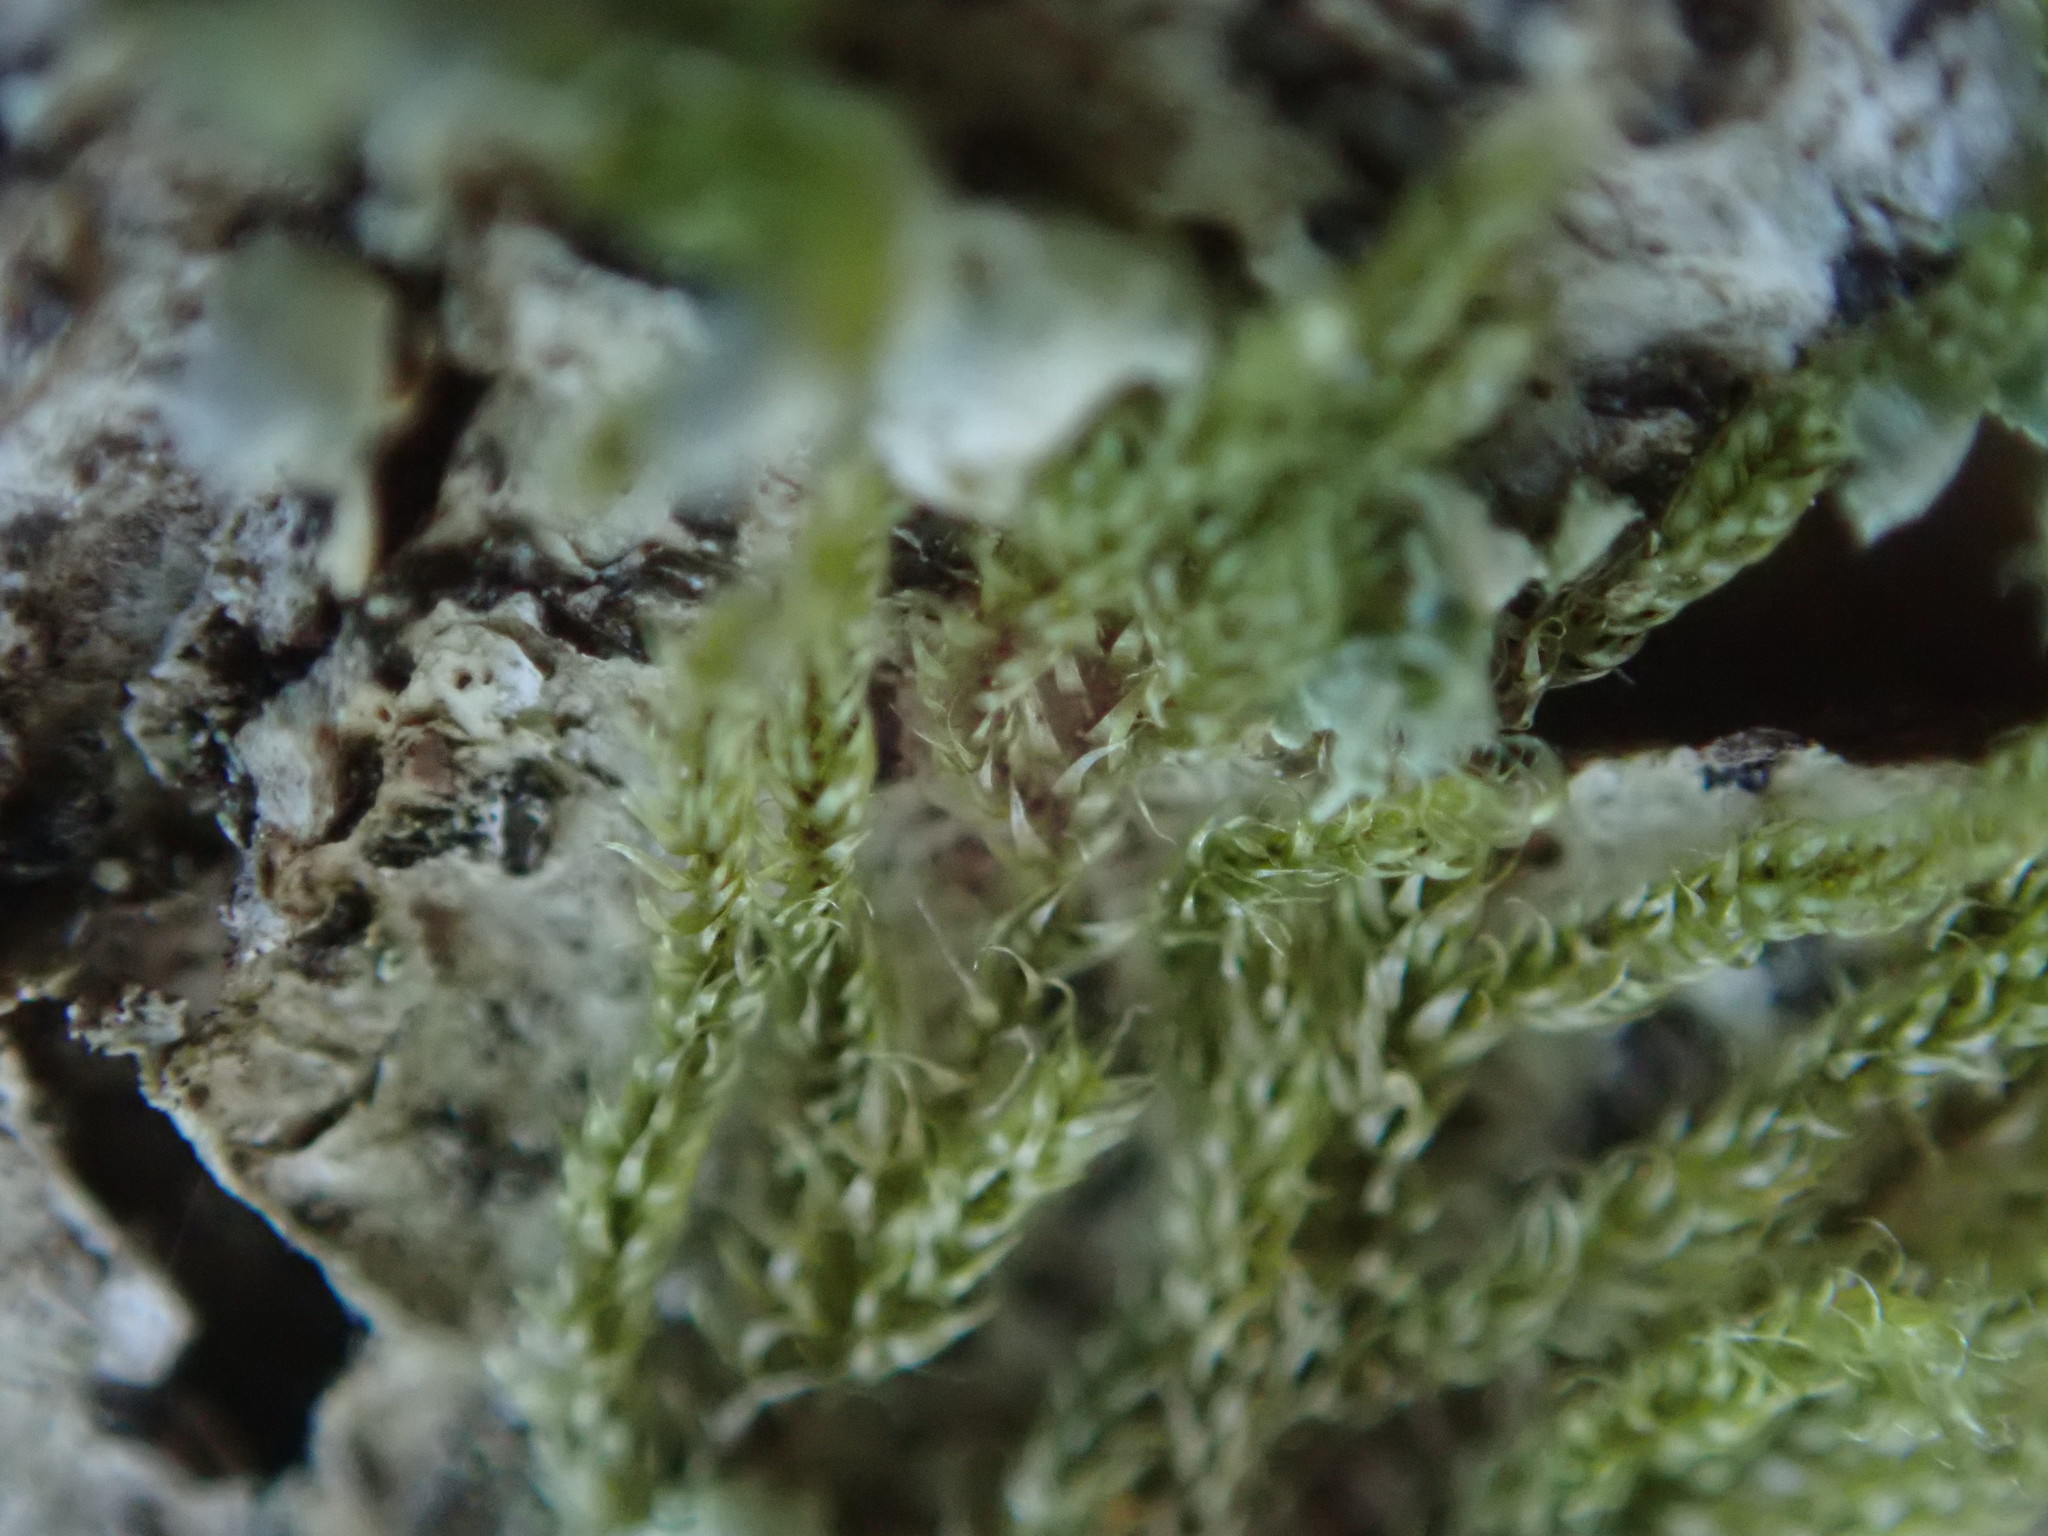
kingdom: Plantae
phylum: Bryophyta
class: Bryopsida
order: Hypnales
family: Pylaisiadelphaceae
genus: Trochophyllohypnum
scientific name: Trochophyllohypnum circinale
